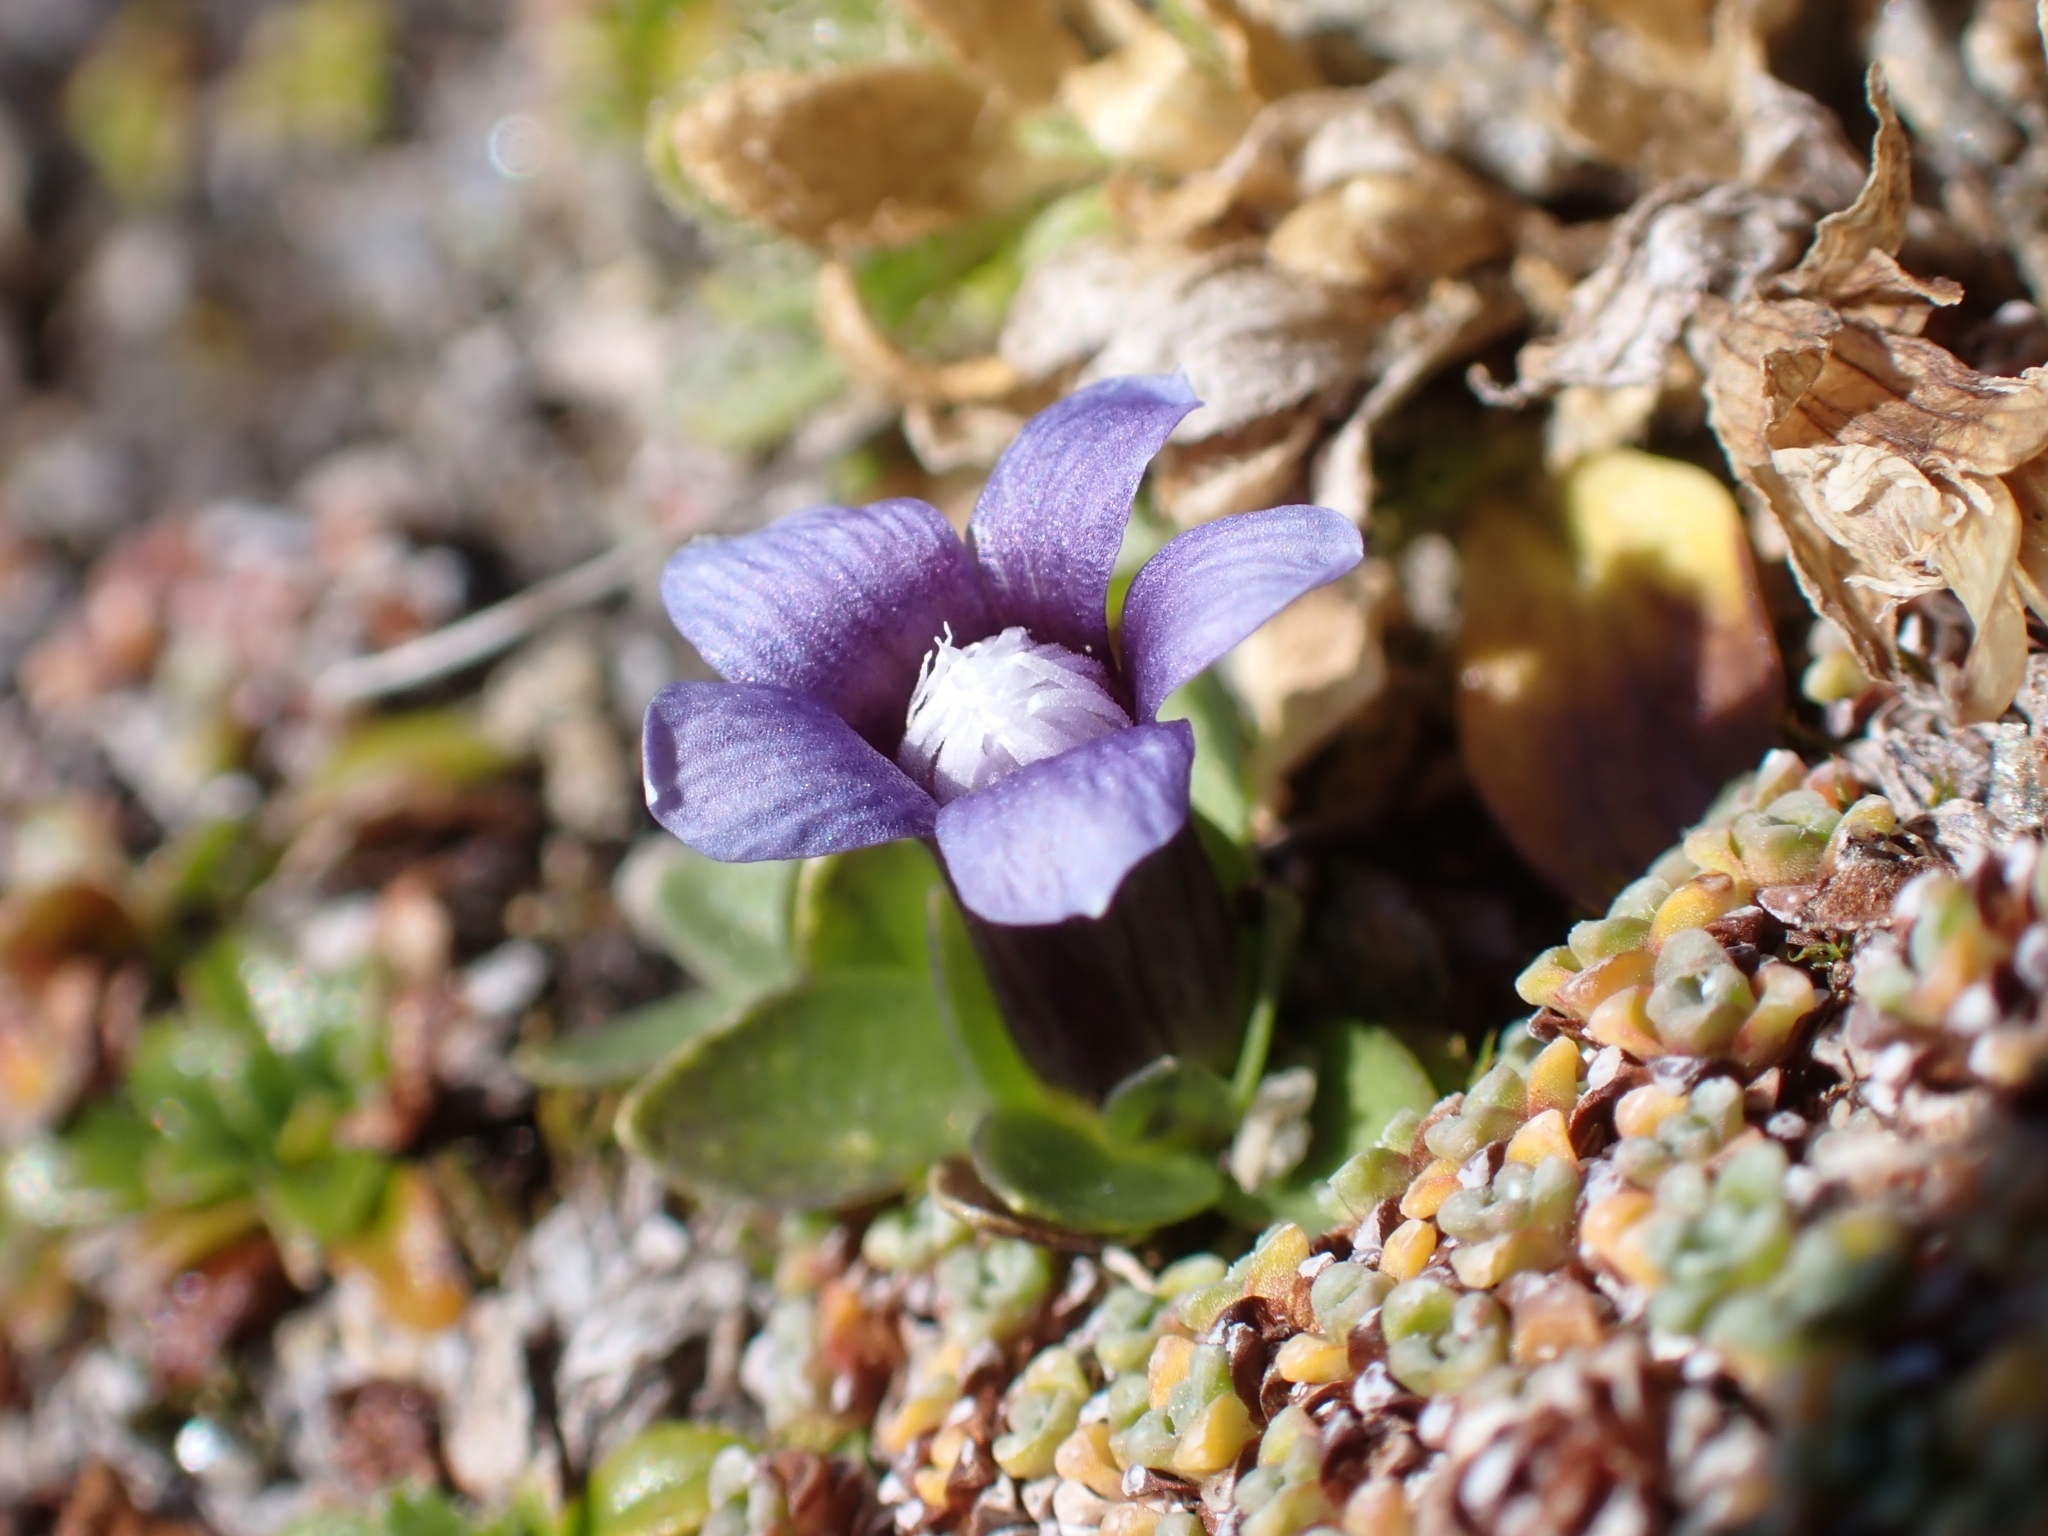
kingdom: Plantae
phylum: Tracheophyta
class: Magnoliopsida
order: Gentianales
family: Gentianaceae
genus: Comastoma
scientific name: Comastoma nanum
